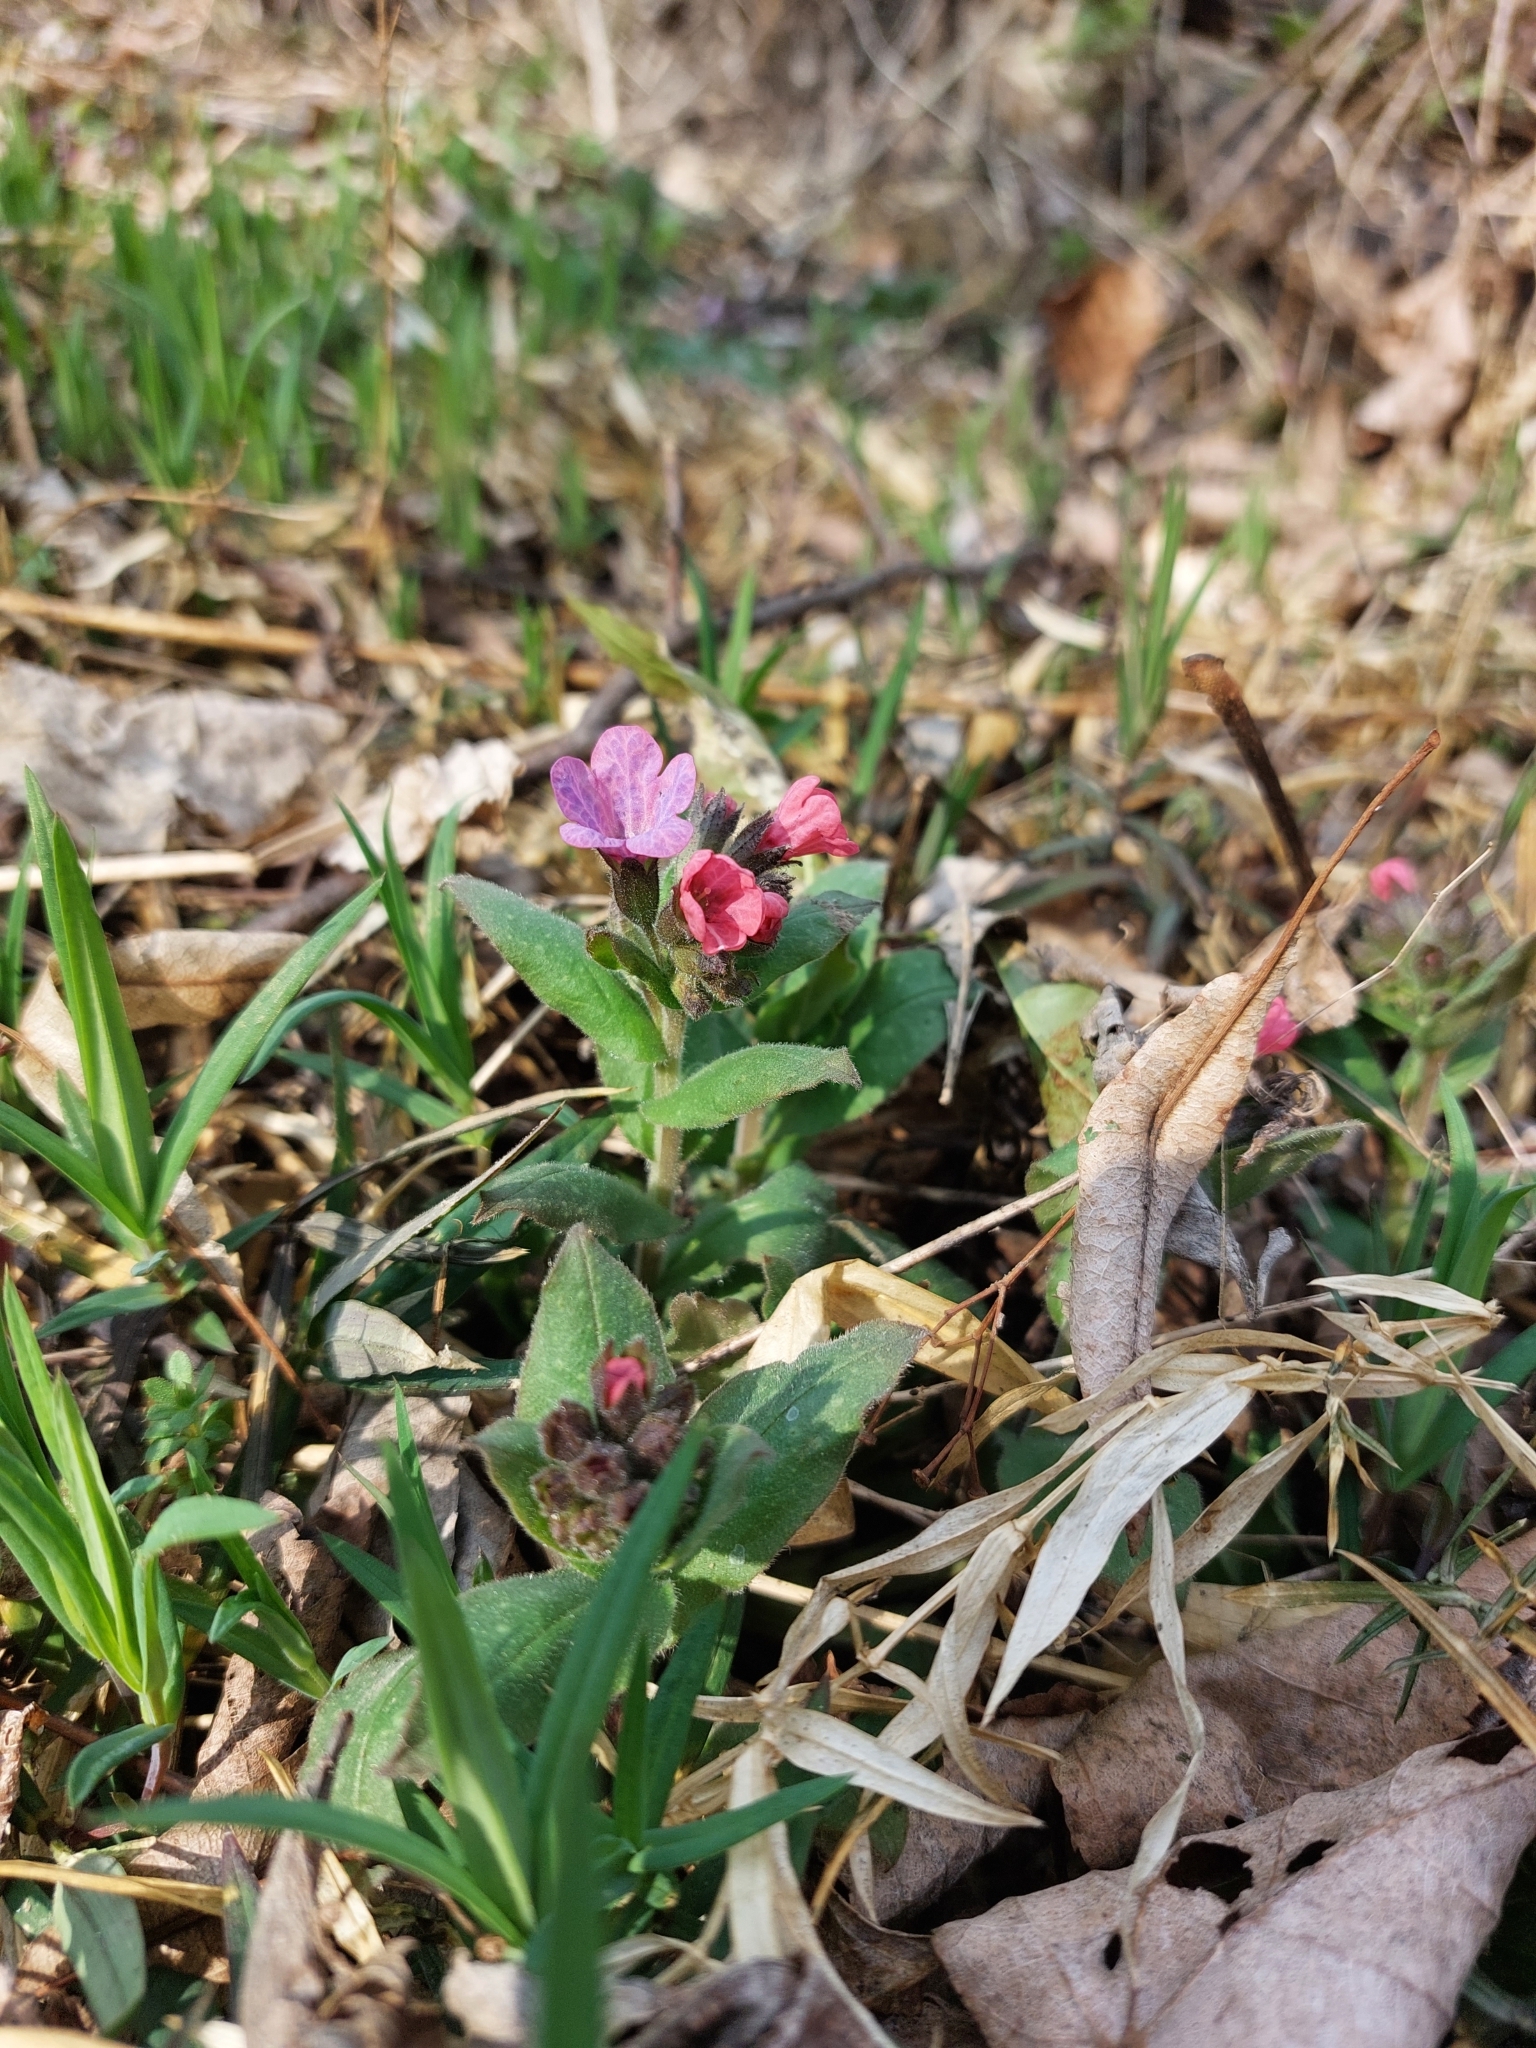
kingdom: Plantae
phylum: Tracheophyta
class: Magnoliopsida
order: Boraginales
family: Boraginaceae
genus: Pulmonaria
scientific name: Pulmonaria obscura
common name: Suffolk lungwort
